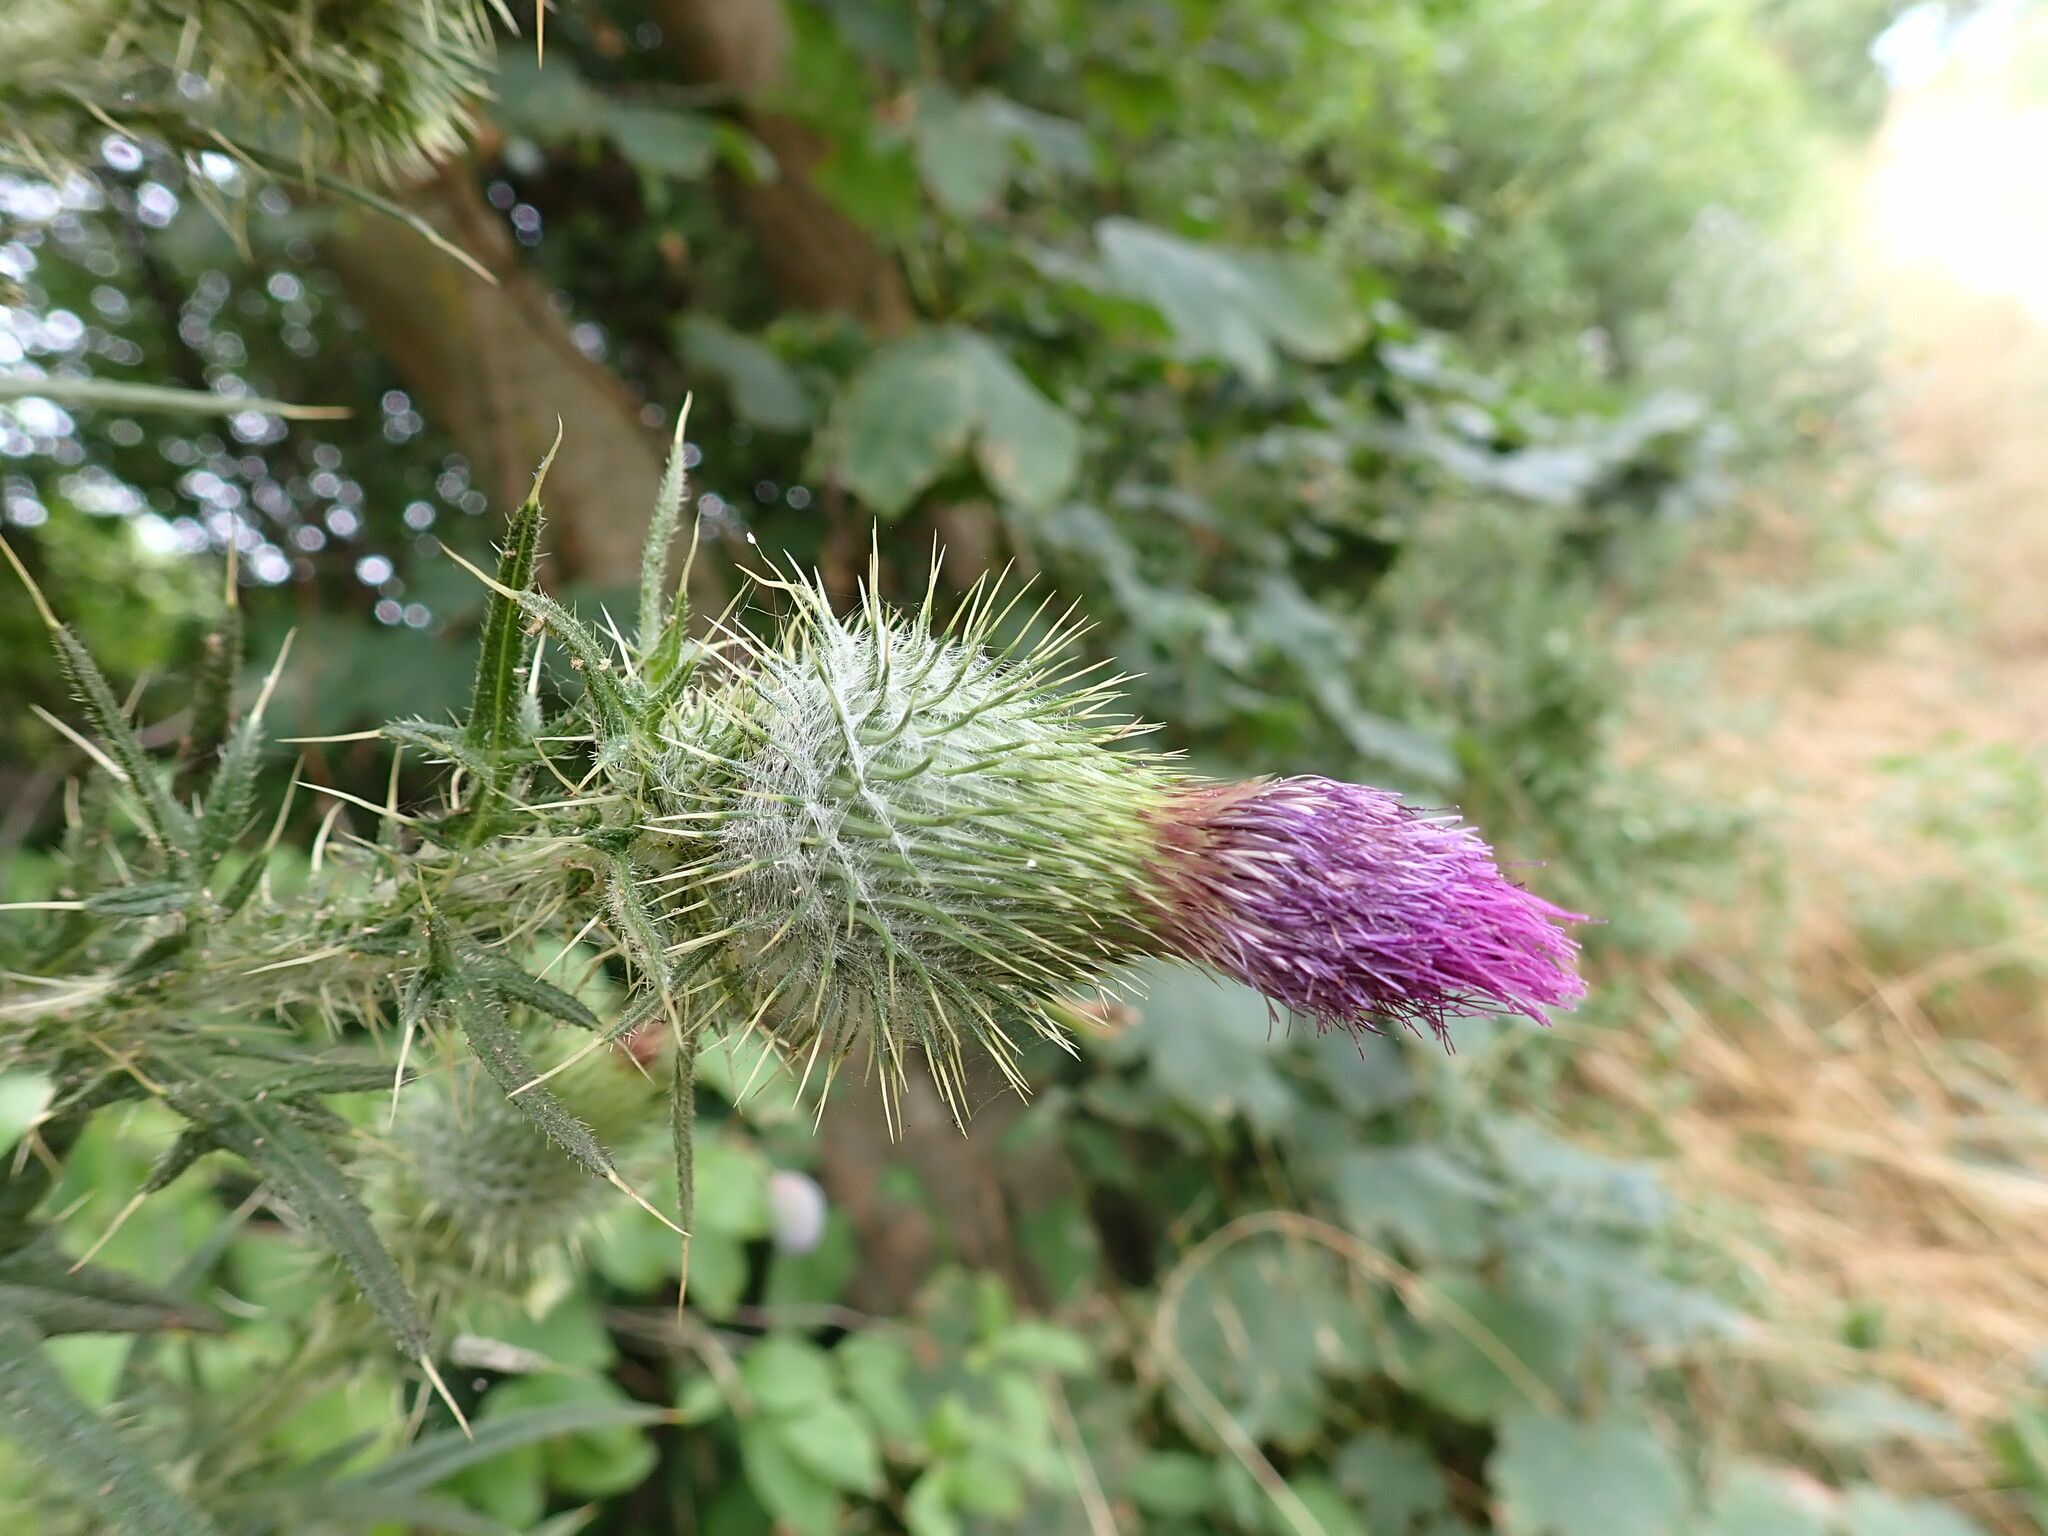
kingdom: Plantae
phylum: Tracheophyta
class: Magnoliopsida
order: Asterales
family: Asteraceae
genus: Cirsium
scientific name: Cirsium vulgare
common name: Bull thistle
